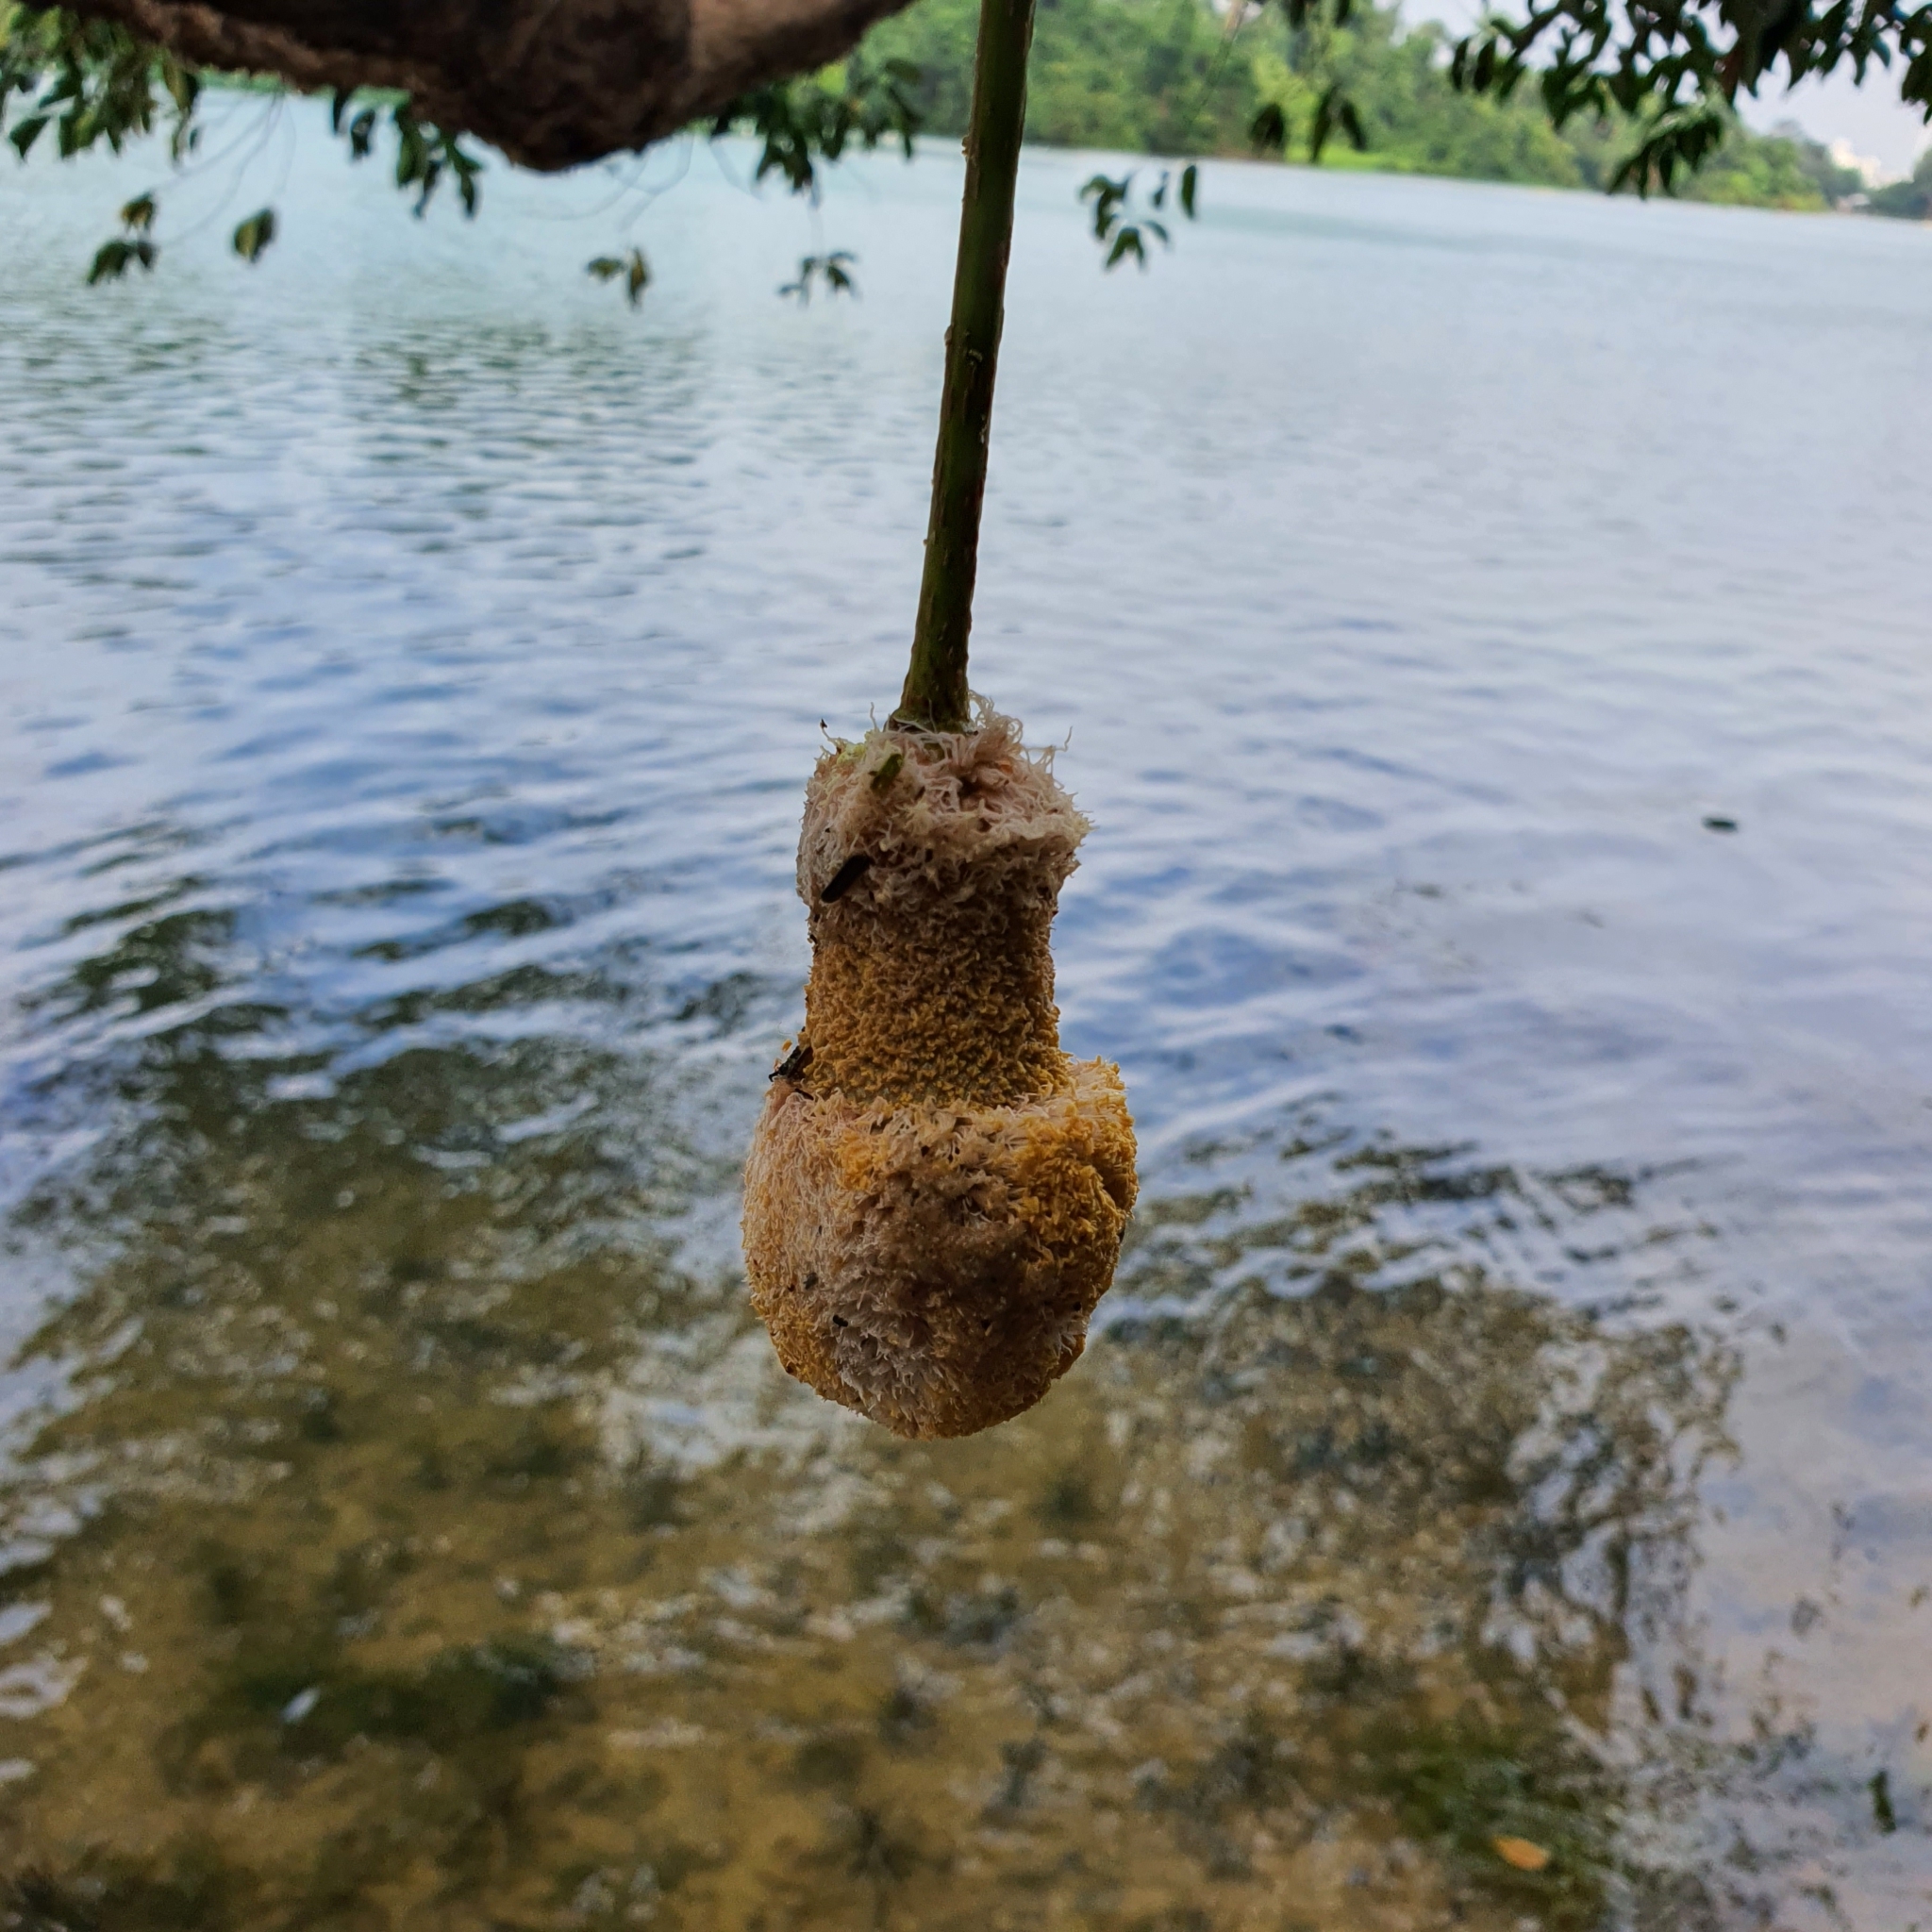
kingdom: Plantae
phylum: Tracheophyta
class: Magnoliopsida
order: Fabales
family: Fabaceae
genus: Parkia
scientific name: Parkia speciosa
